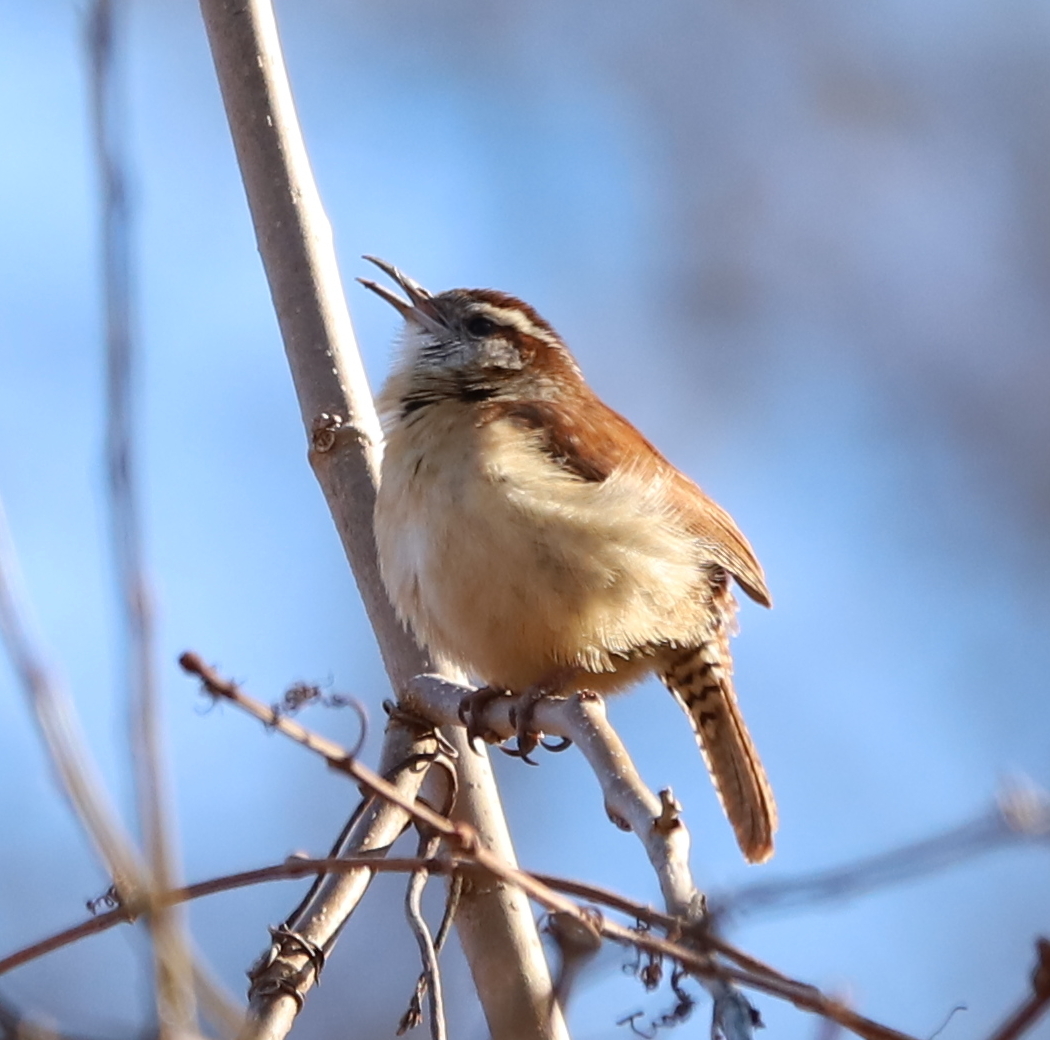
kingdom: Animalia
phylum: Chordata
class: Aves
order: Passeriformes
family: Troglodytidae
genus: Thryothorus
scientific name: Thryothorus ludovicianus
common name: Carolina wren
